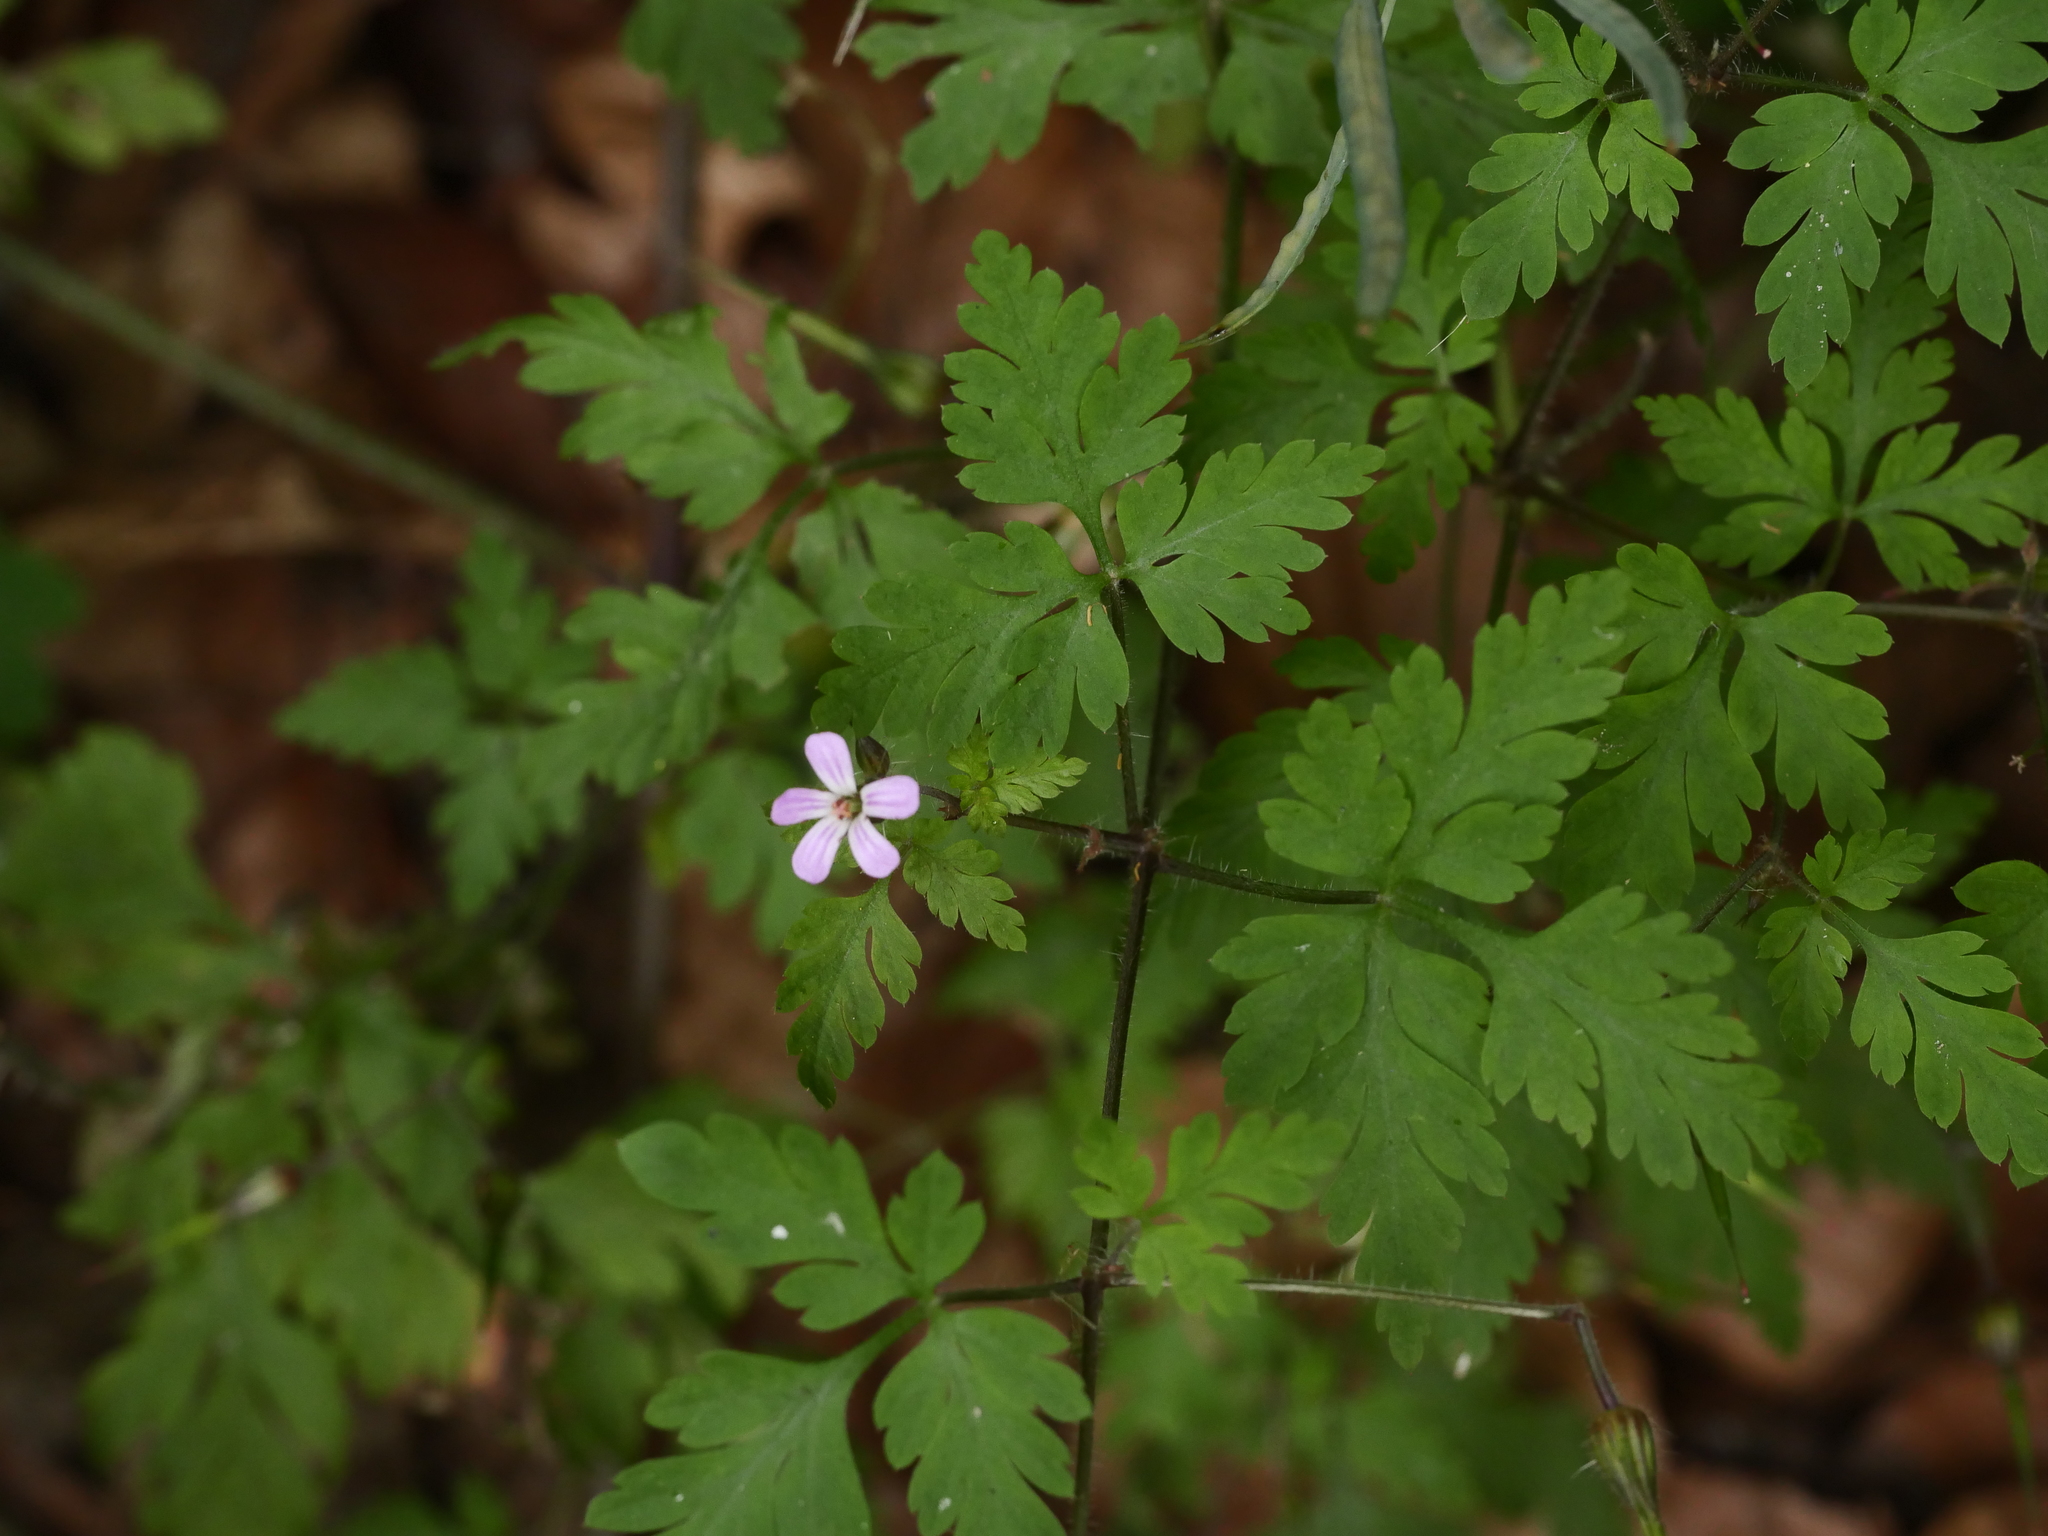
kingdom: Plantae
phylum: Tracheophyta
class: Magnoliopsida
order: Geraniales
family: Geraniaceae
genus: Geranium
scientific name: Geranium robertianum
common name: Herb-robert
